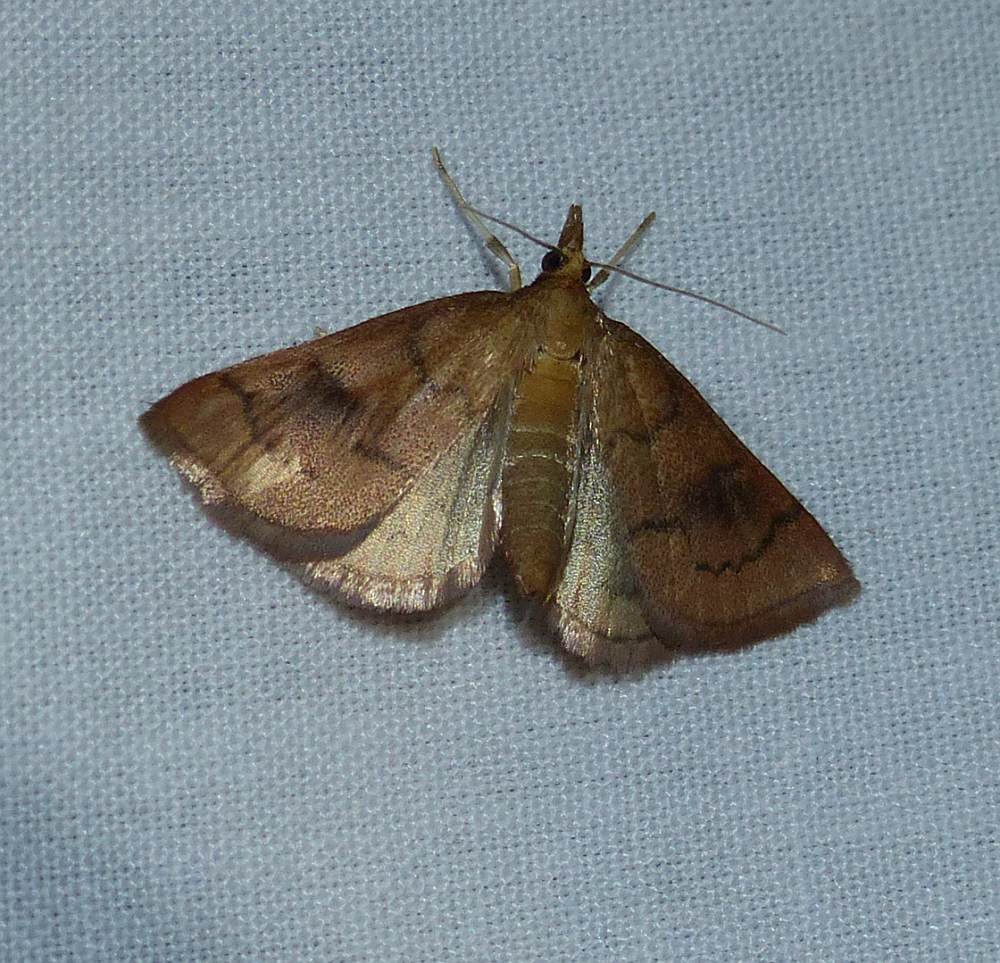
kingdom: Animalia
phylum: Arthropoda
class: Insecta
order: Lepidoptera
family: Crambidae
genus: Fumibotys
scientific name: Fumibotys fumalis
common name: Mint root borer moth
